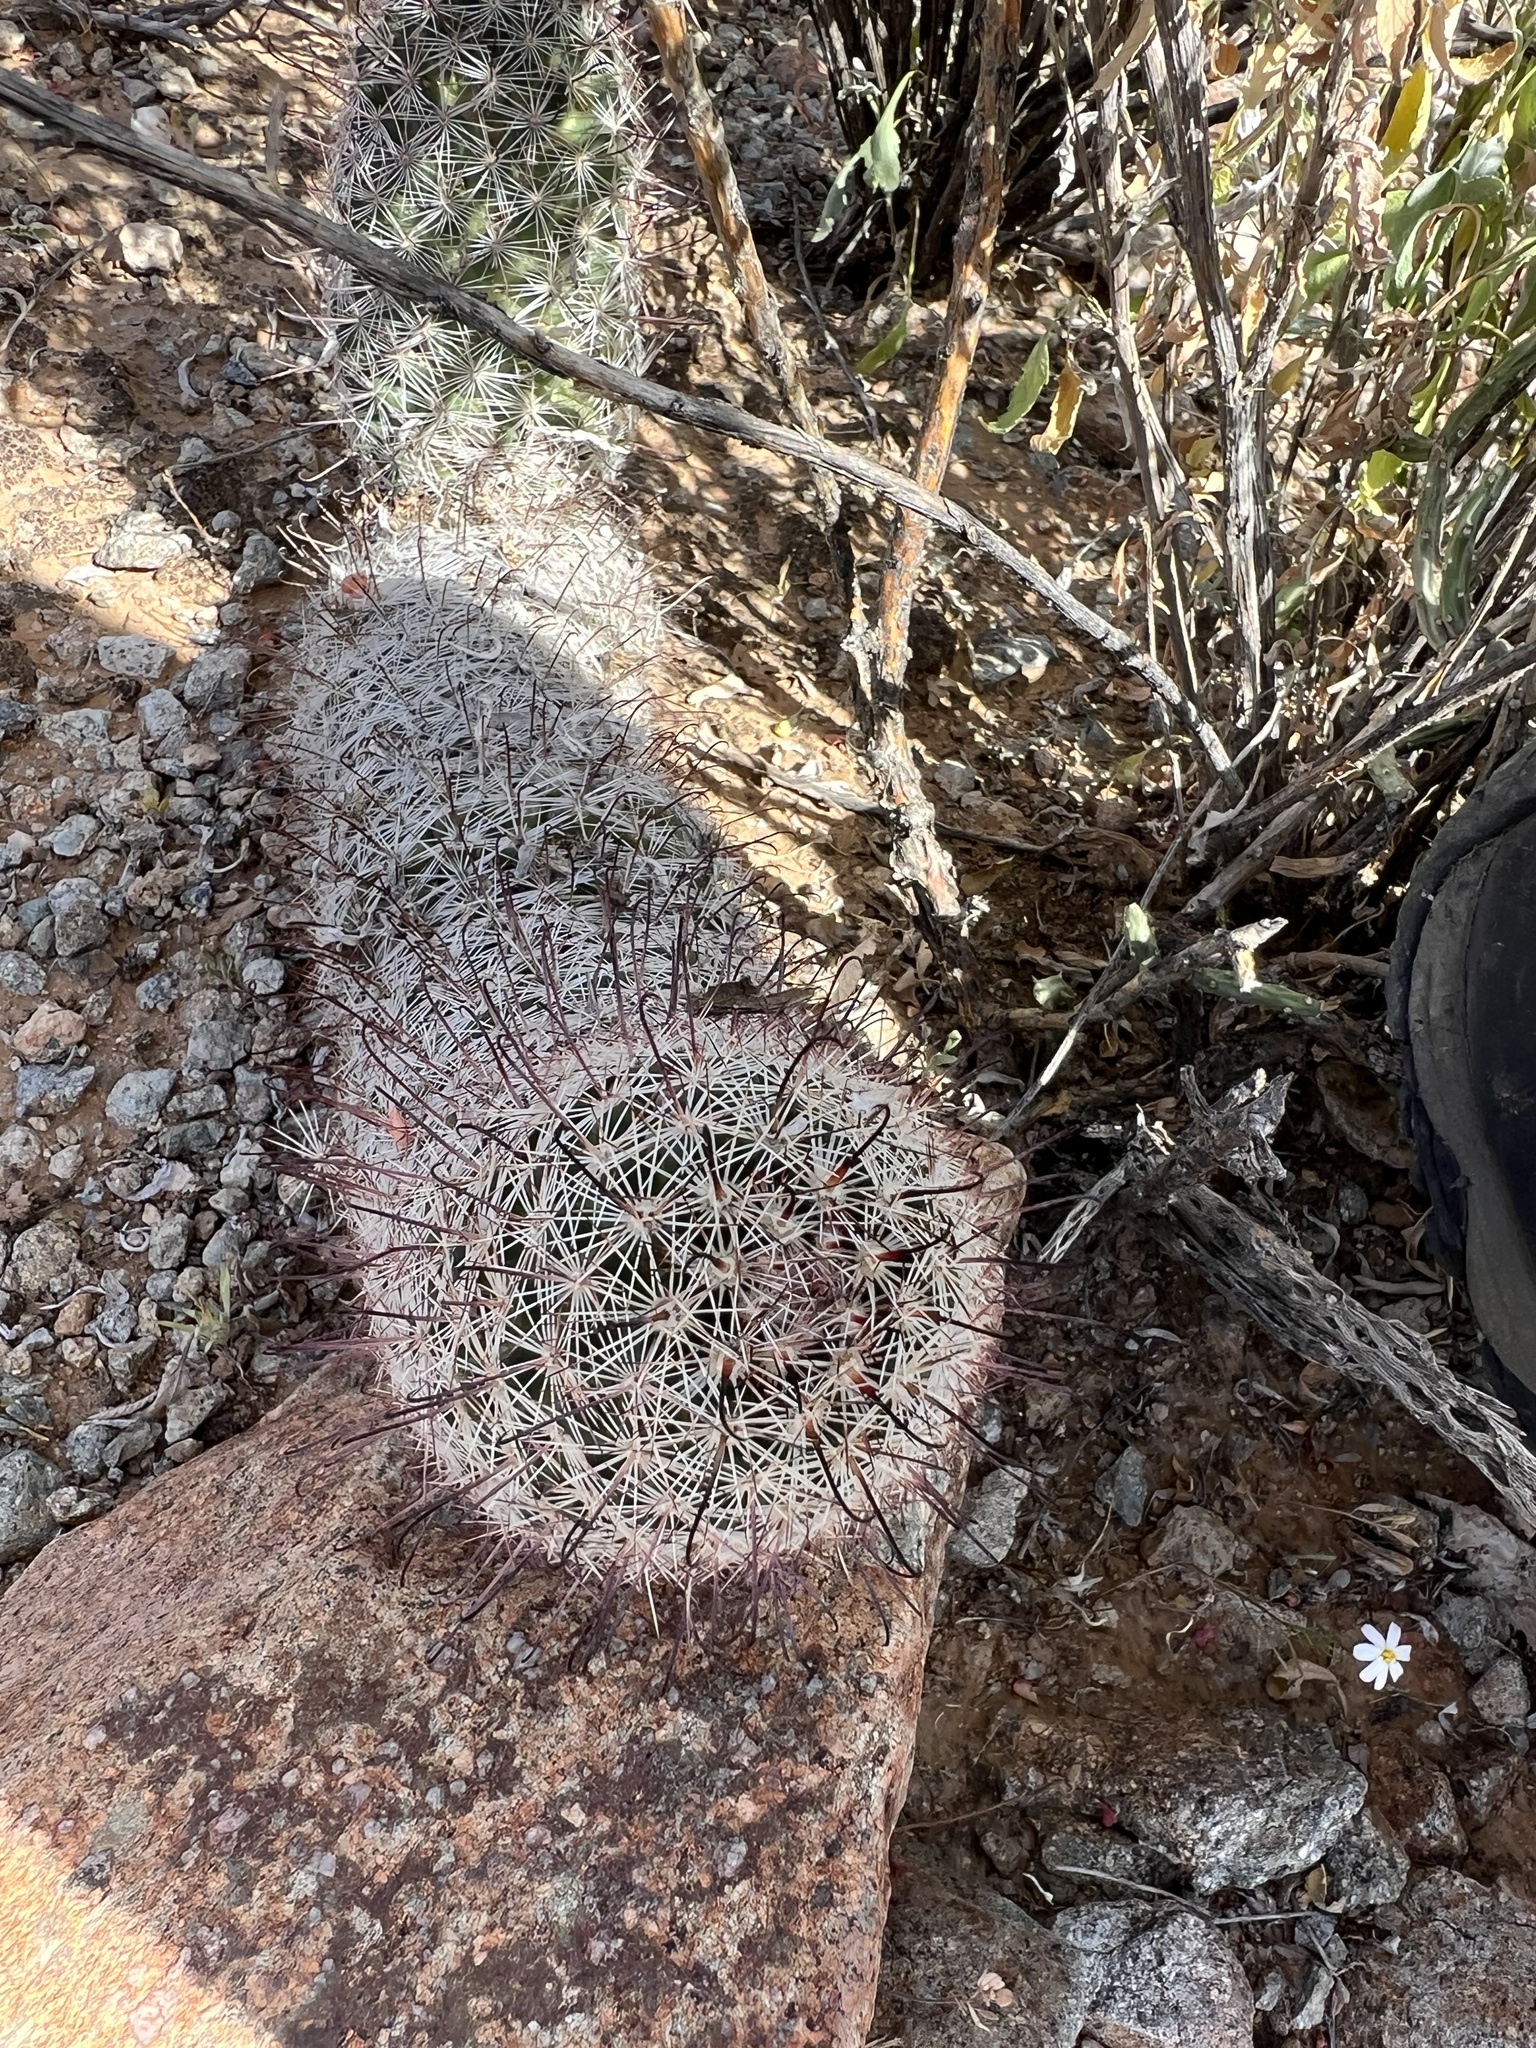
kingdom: Plantae
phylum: Tracheophyta
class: Magnoliopsida
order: Caryophyllales
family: Cactaceae
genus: Cochemiea
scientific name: Cochemiea grahamii
